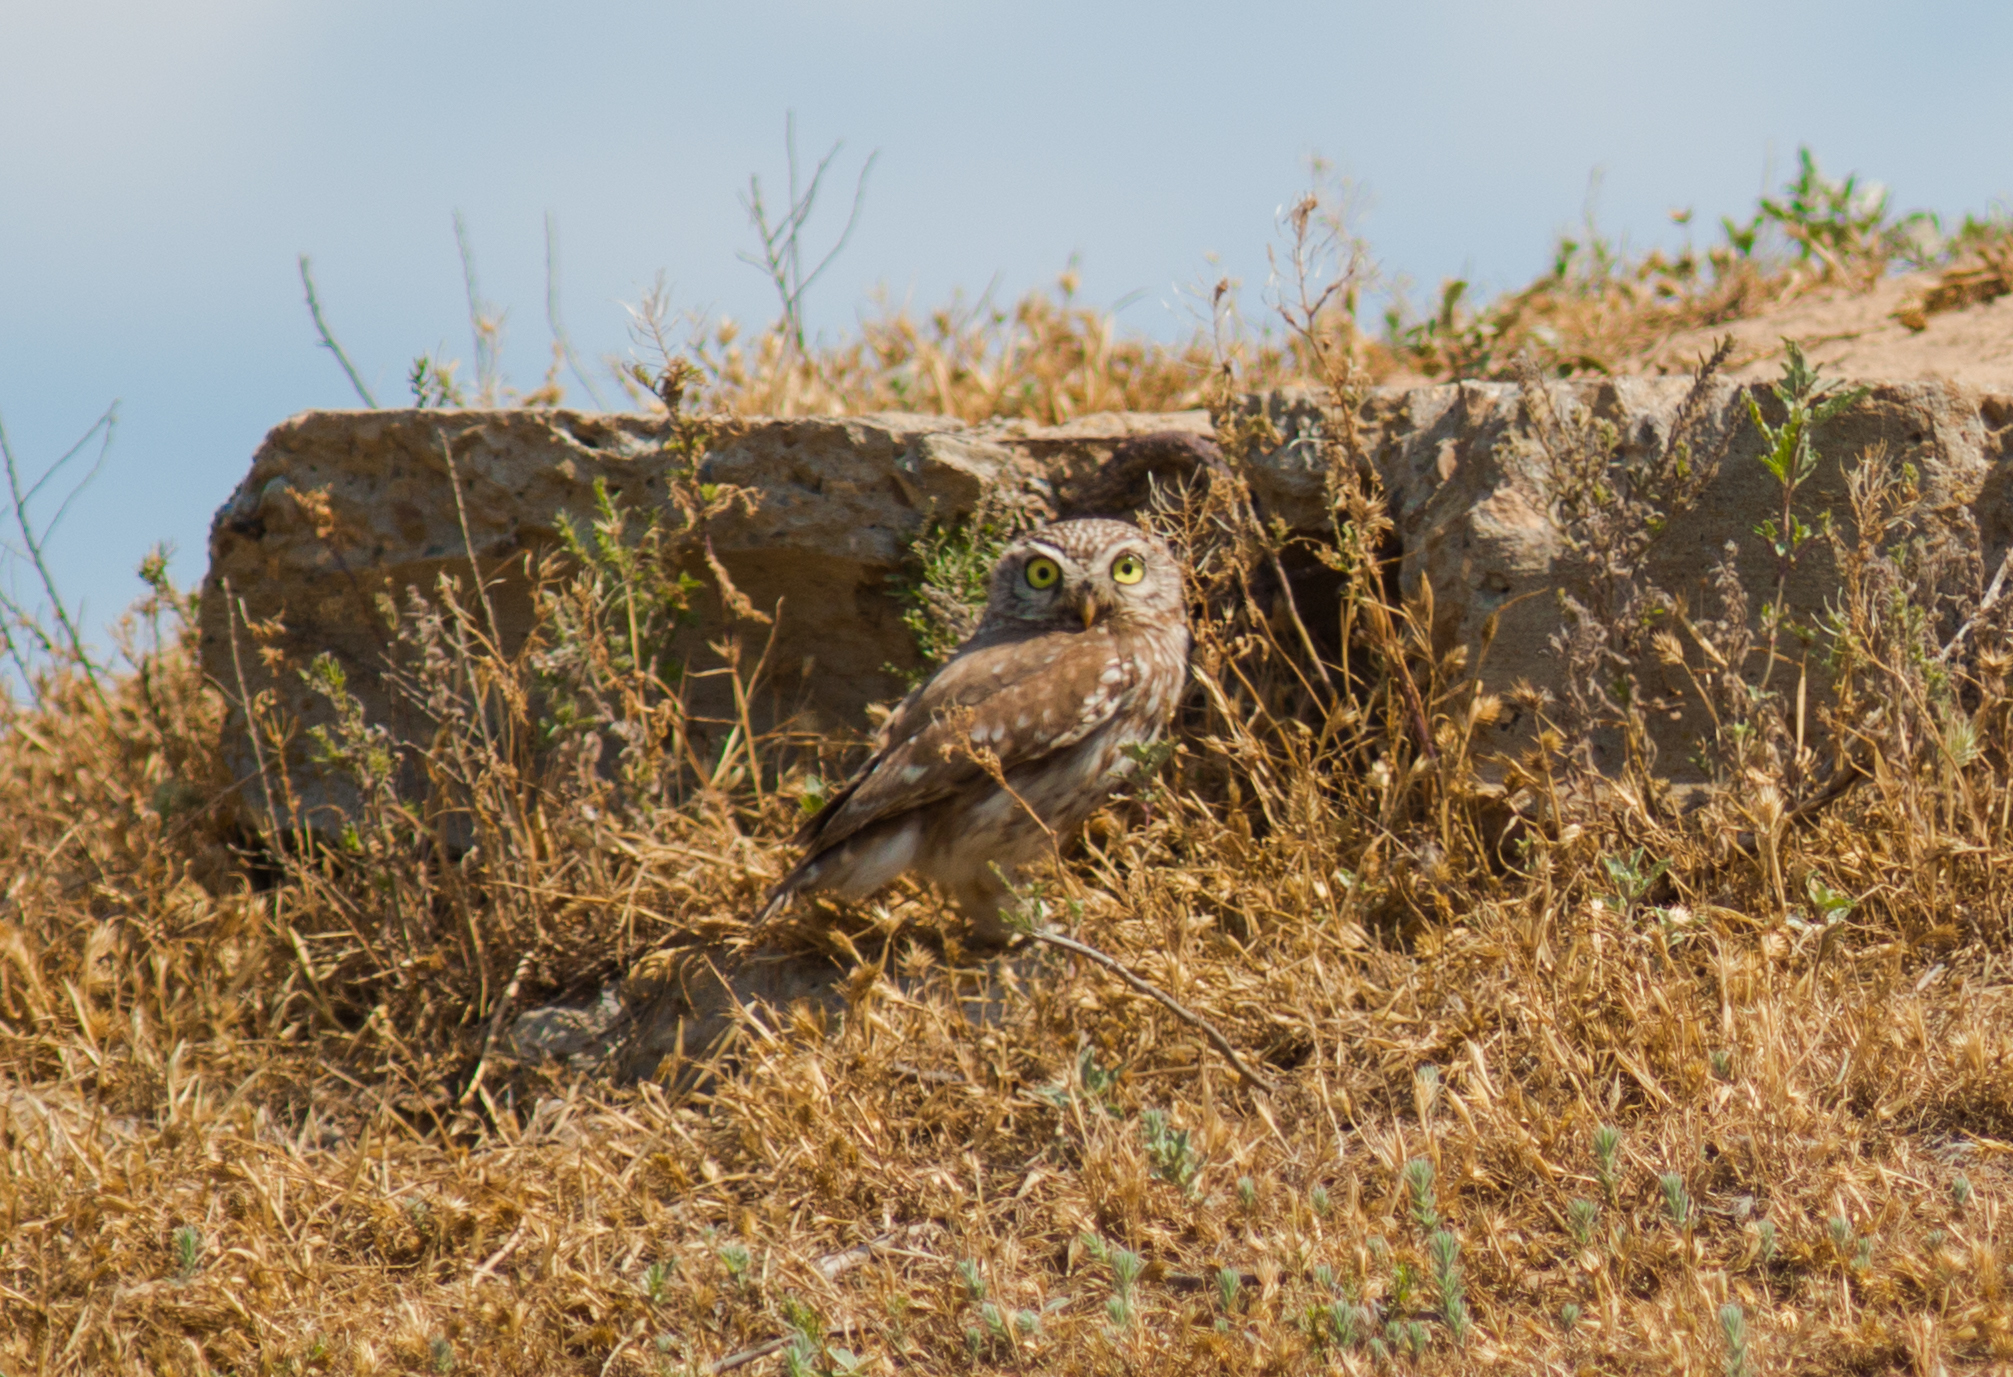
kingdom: Animalia
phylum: Chordata
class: Aves
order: Strigiformes
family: Strigidae
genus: Athene
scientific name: Athene noctua
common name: Little owl
